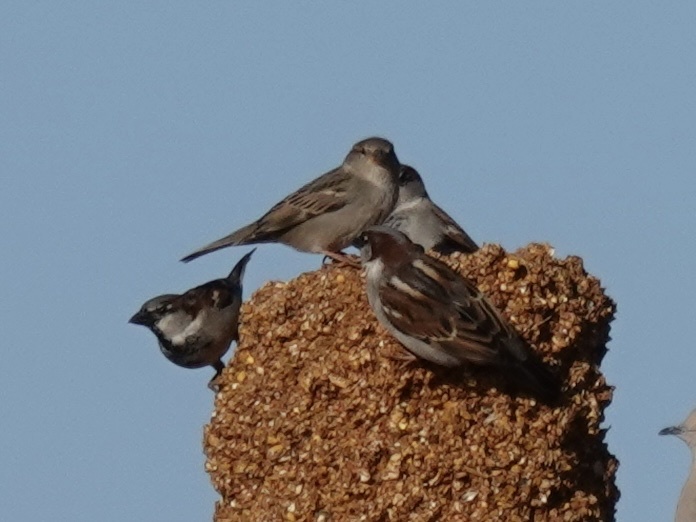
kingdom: Animalia
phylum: Chordata
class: Aves
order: Passeriformes
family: Passeridae
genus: Passer
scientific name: Passer domesticus
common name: House sparrow
